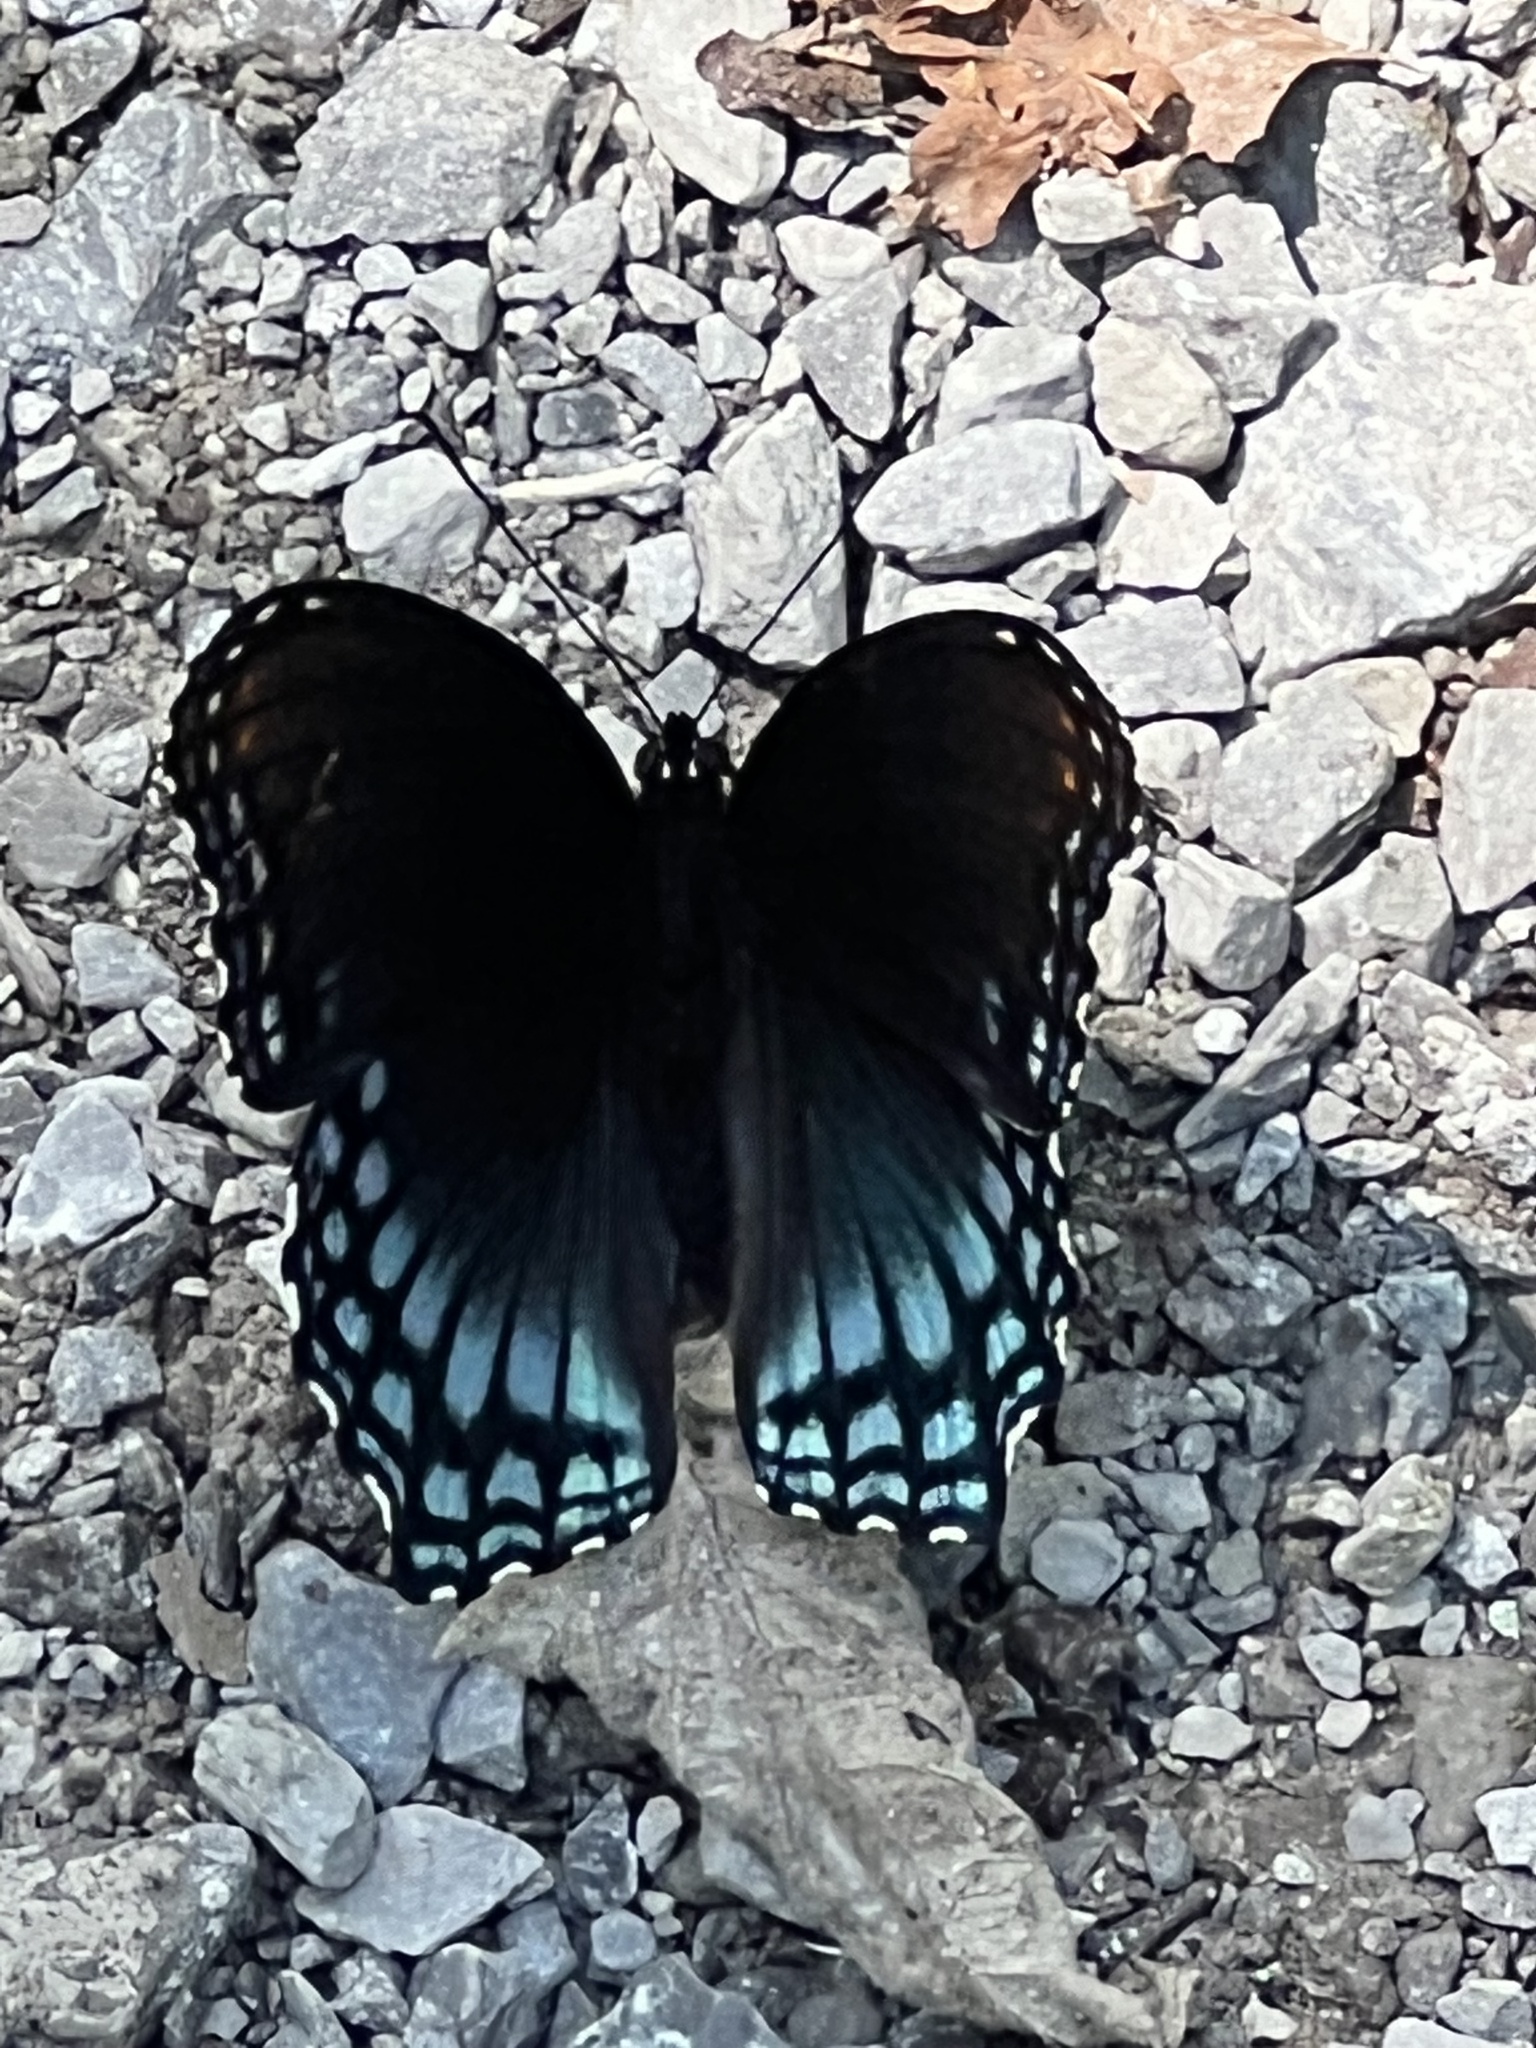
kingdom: Animalia
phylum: Arthropoda
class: Insecta
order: Lepidoptera
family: Nymphalidae
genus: Limenitis
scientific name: Limenitis astyanax
